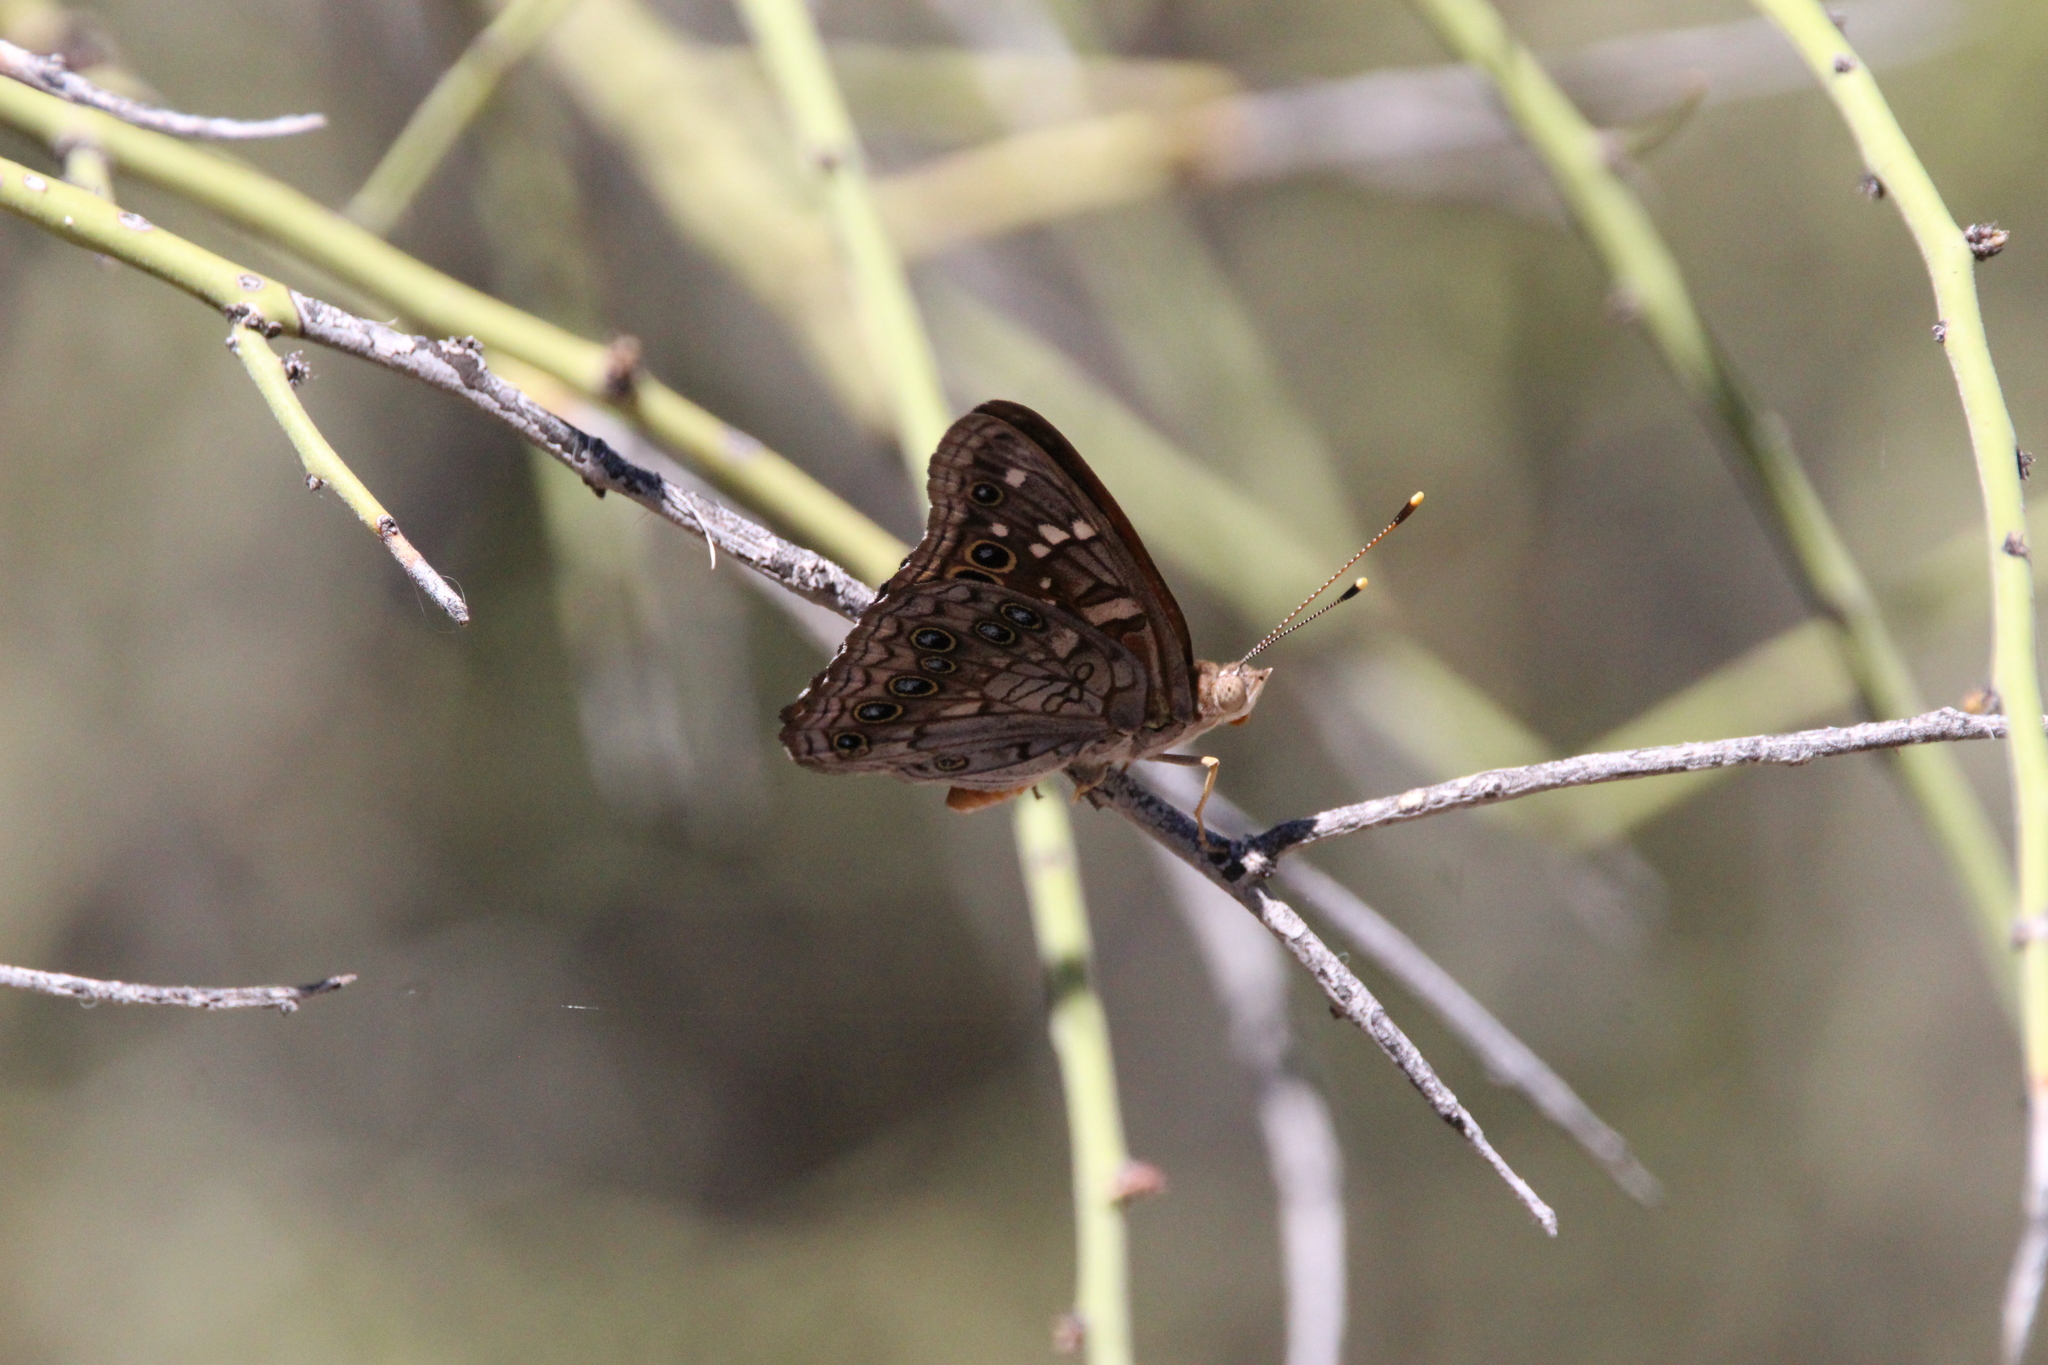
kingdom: Animalia
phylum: Arthropoda
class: Insecta
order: Lepidoptera
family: Nymphalidae
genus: Asterocampa
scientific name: Asterocampa leilia
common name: Empress leilia
